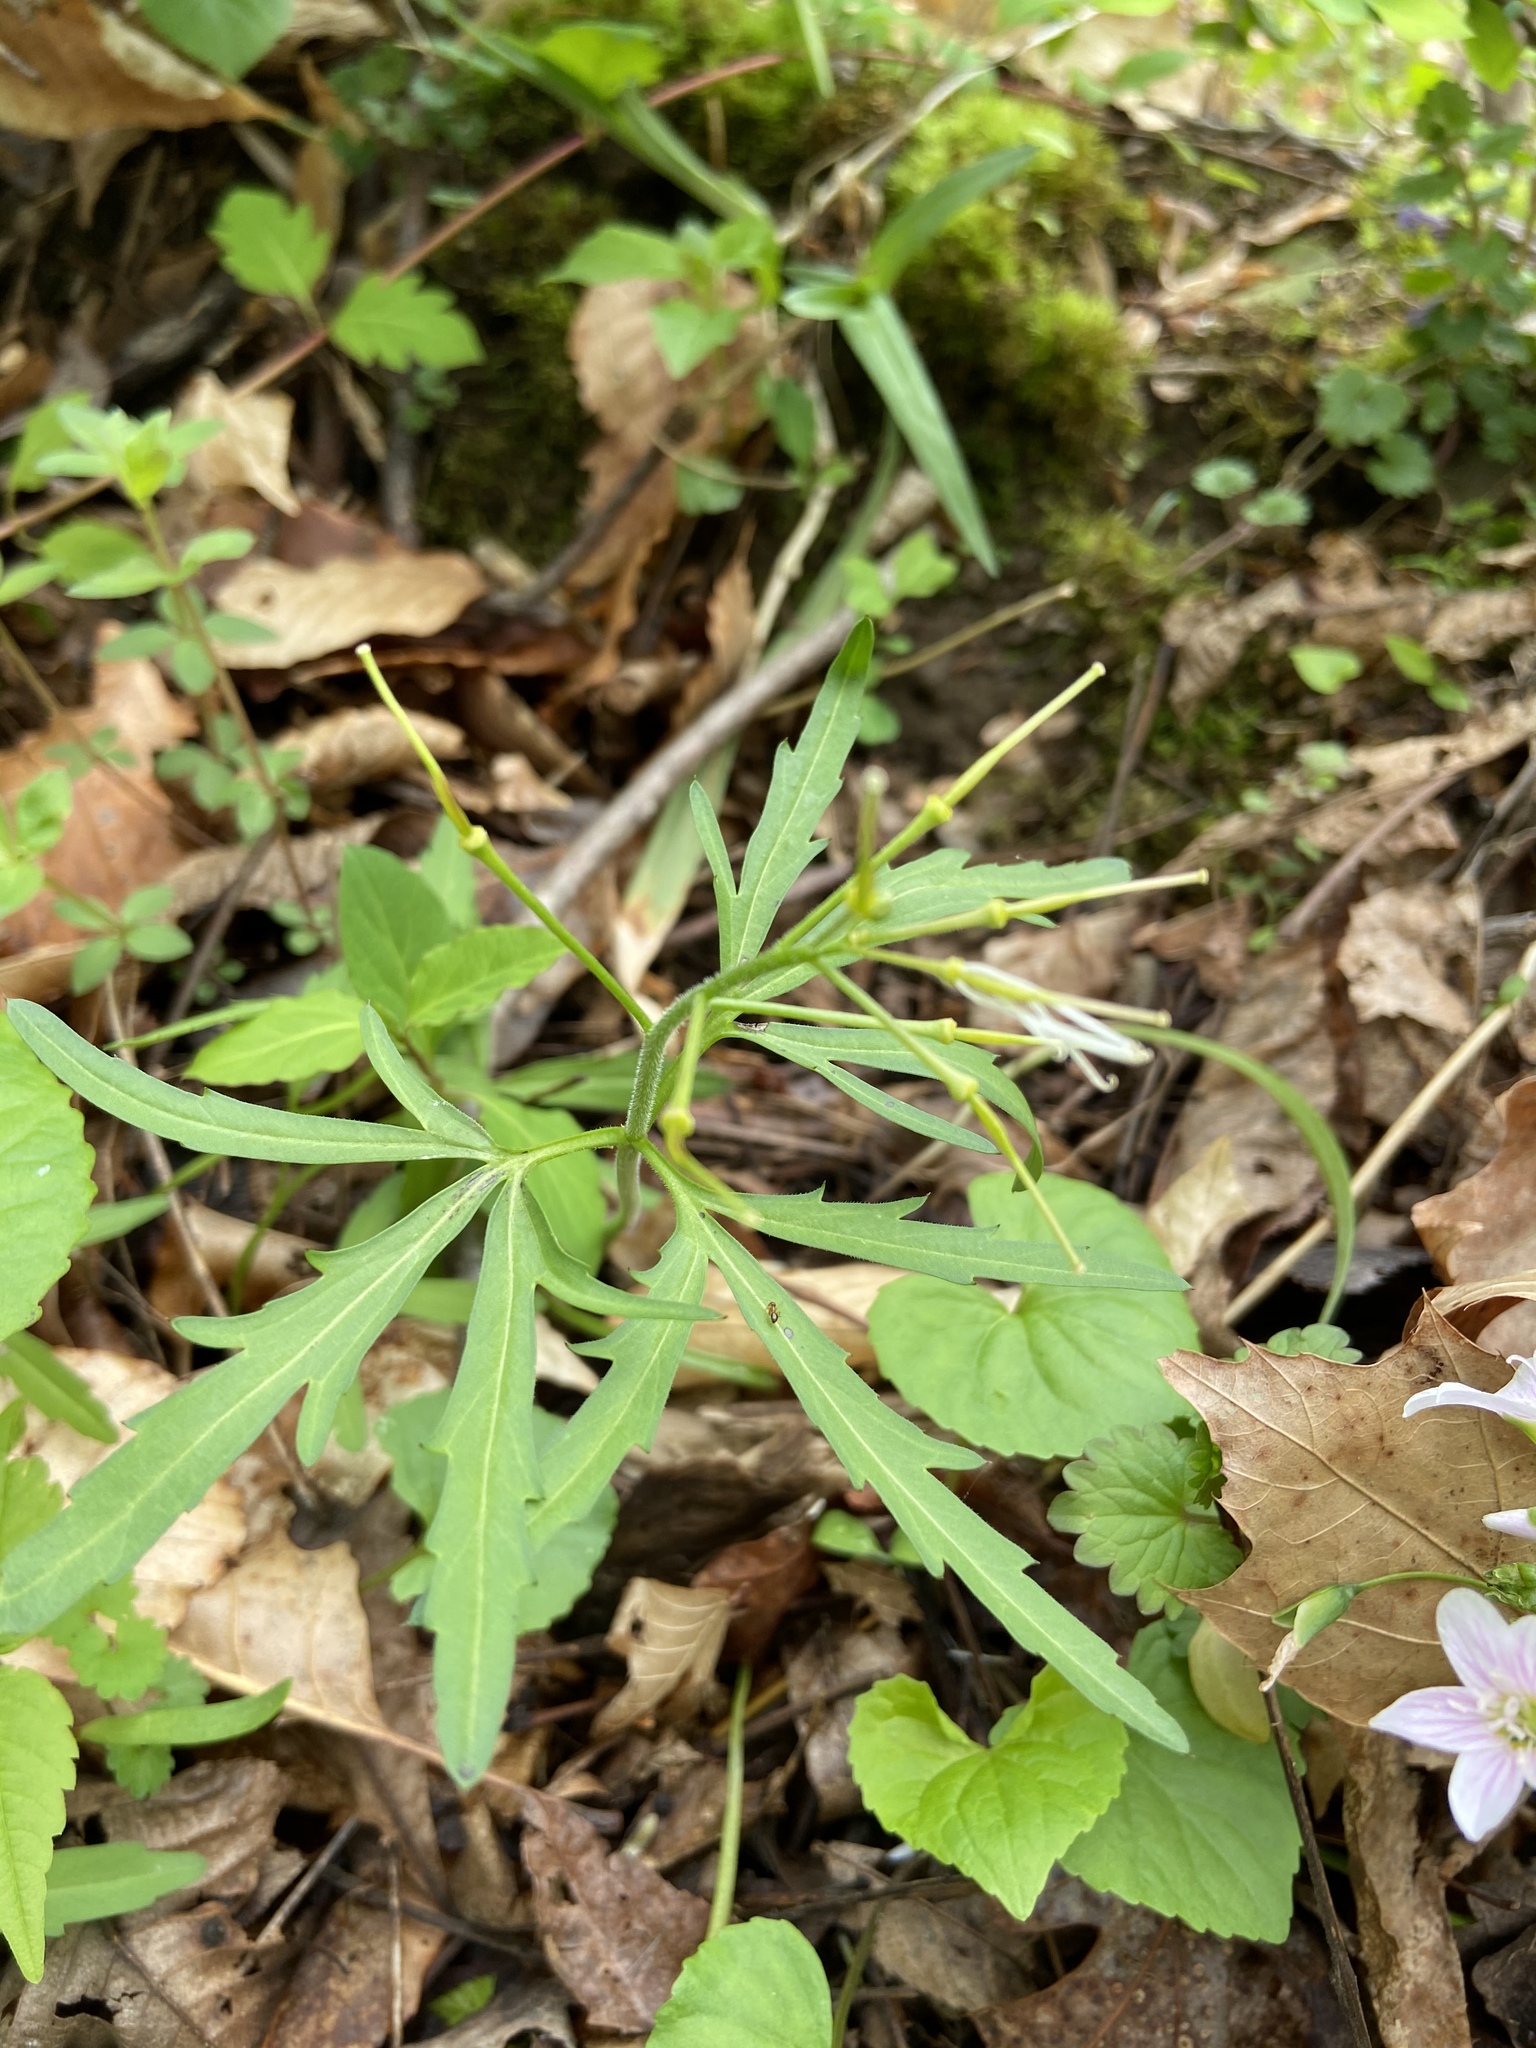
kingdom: Plantae
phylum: Tracheophyta
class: Magnoliopsida
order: Brassicales
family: Brassicaceae
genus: Cardamine
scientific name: Cardamine concatenata
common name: Cut-leaf toothcup
